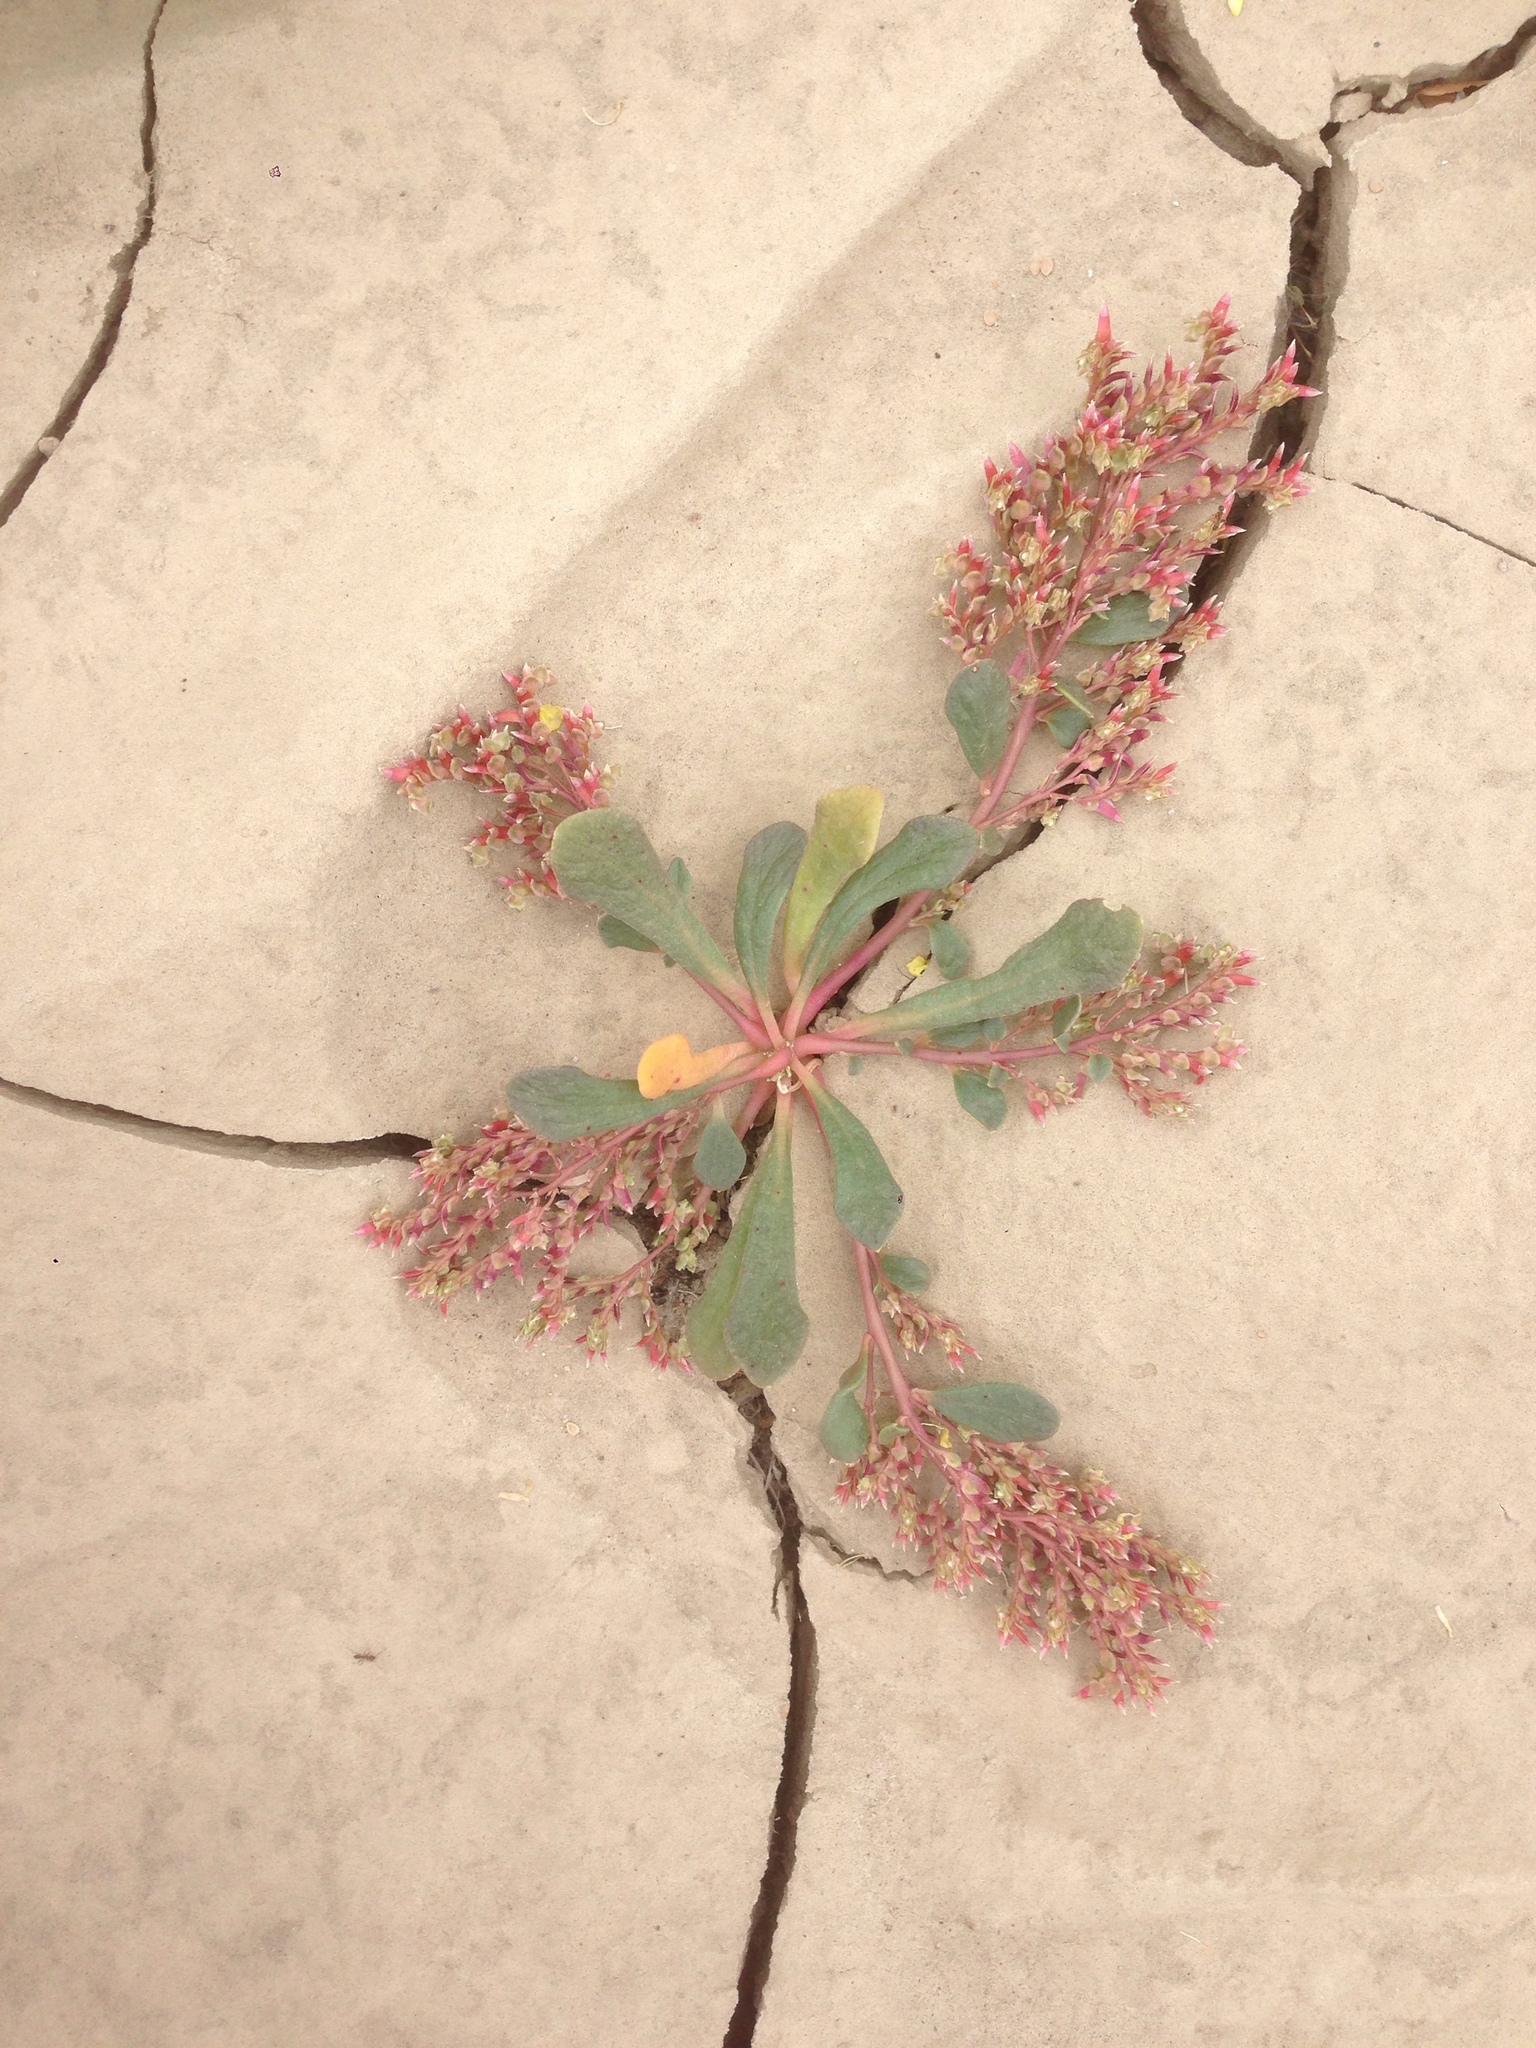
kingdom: Plantae
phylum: Tracheophyta
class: Magnoliopsida
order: Caryophyllales
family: Montiaceae
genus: Calyptridium
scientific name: Calyptridium monandrum
